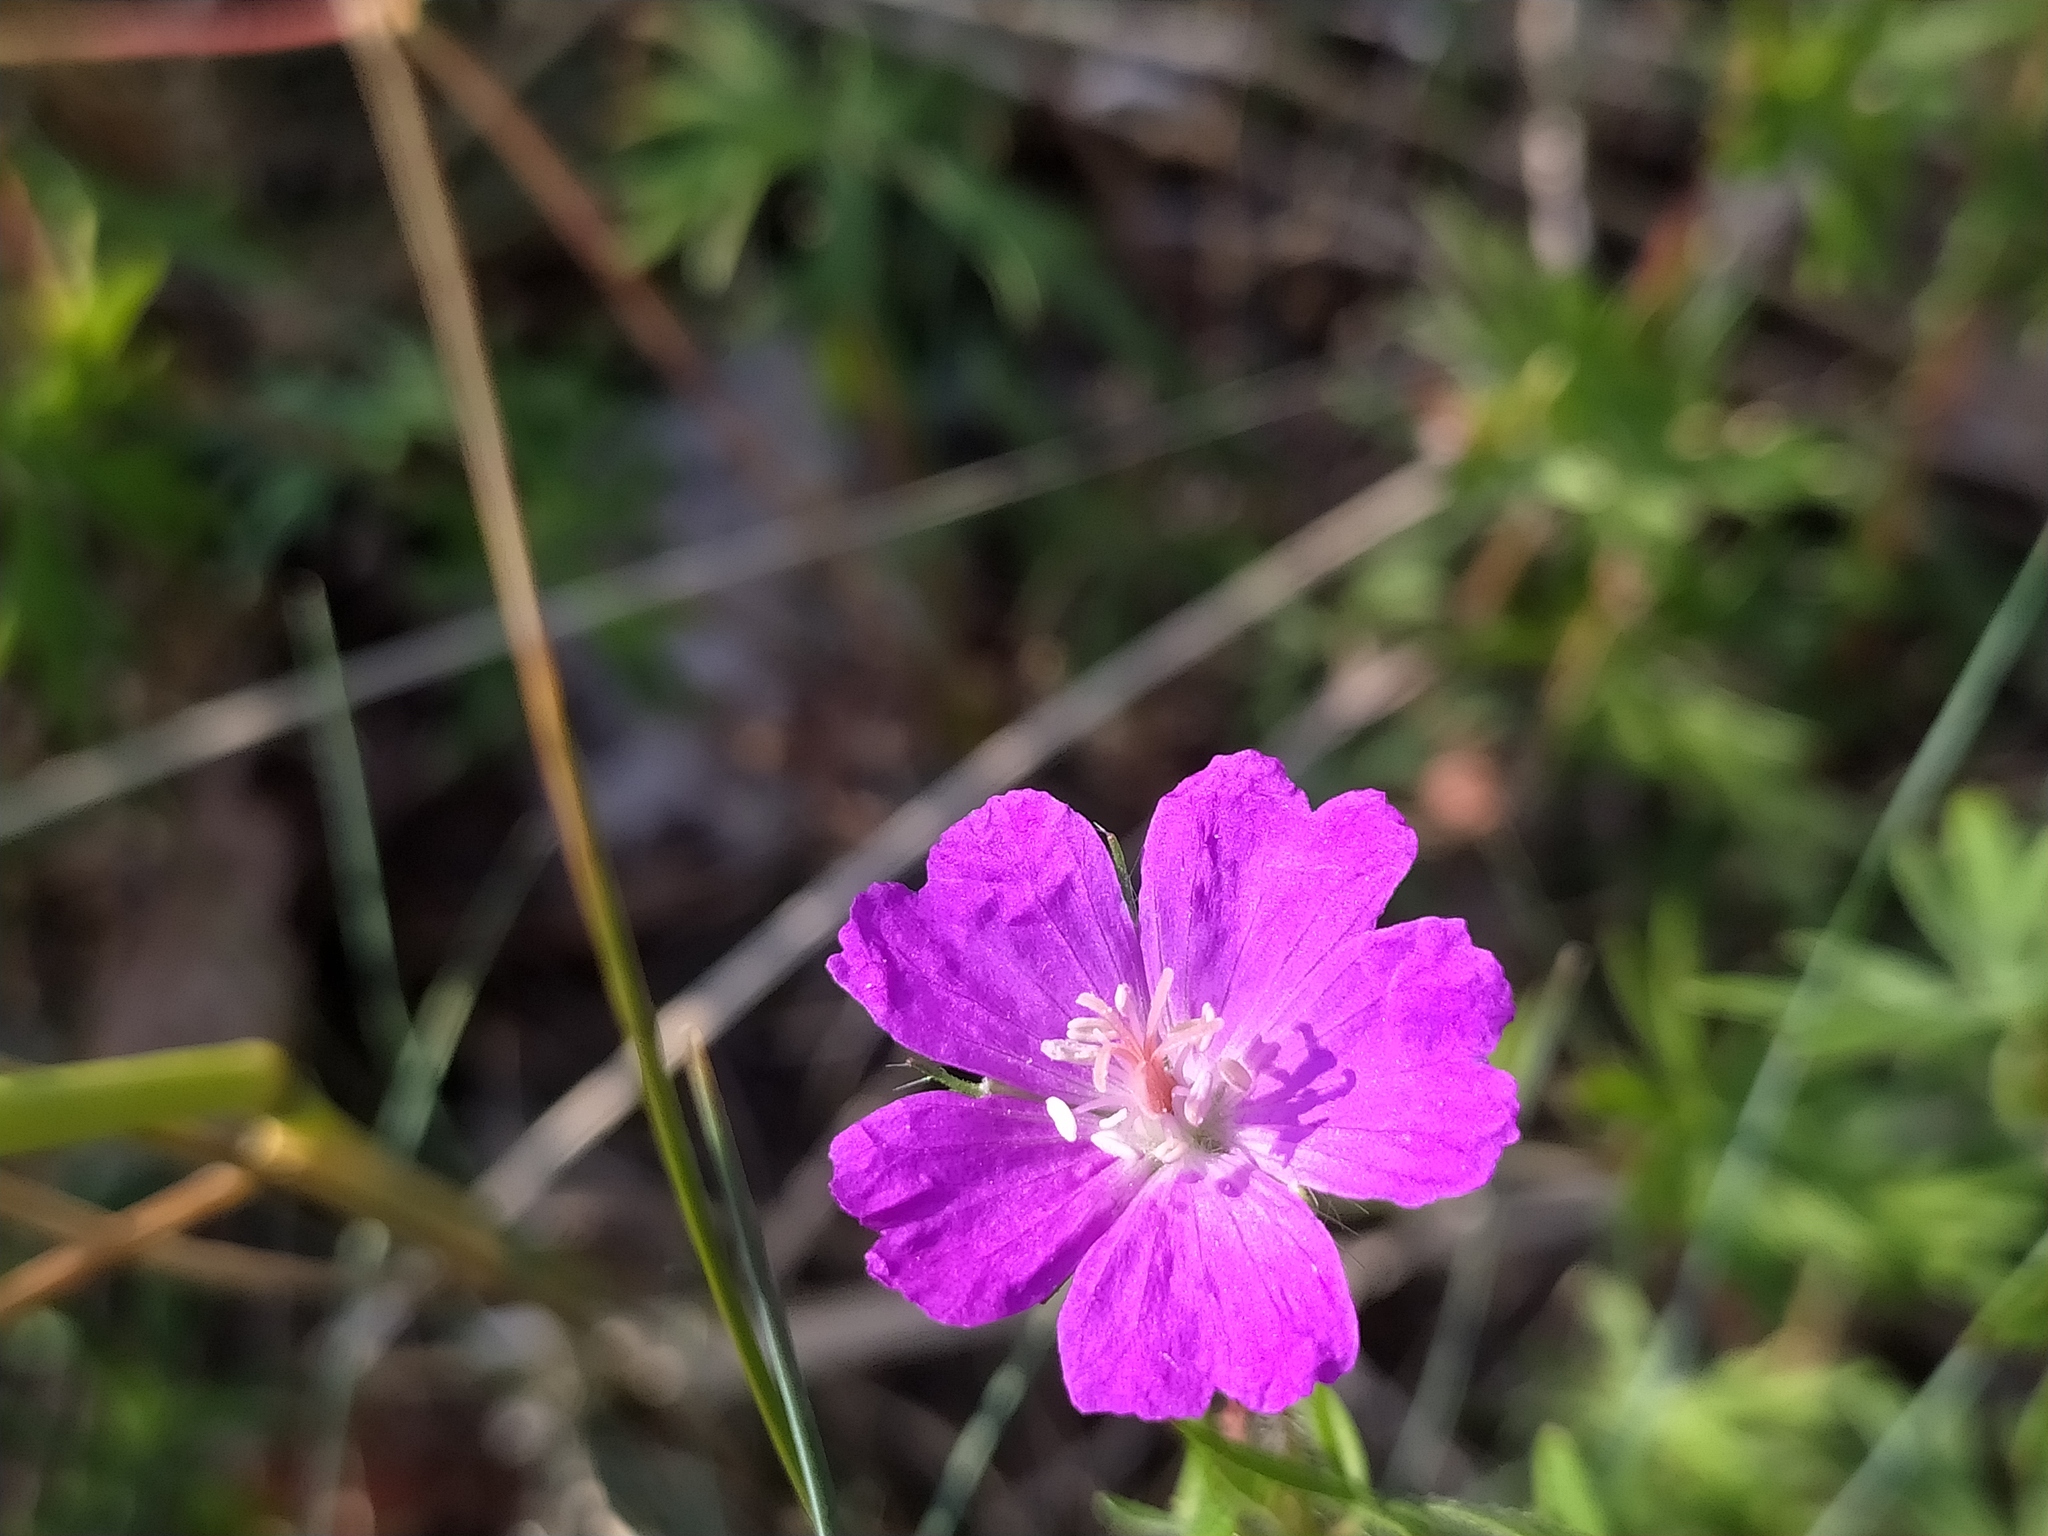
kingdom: Plantae
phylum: Tracheophyta
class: Magnoliopsida
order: Geraniales
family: Geraniaceae
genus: Geranium
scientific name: Geranium sanguineum
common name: Bloody crane's-bill
